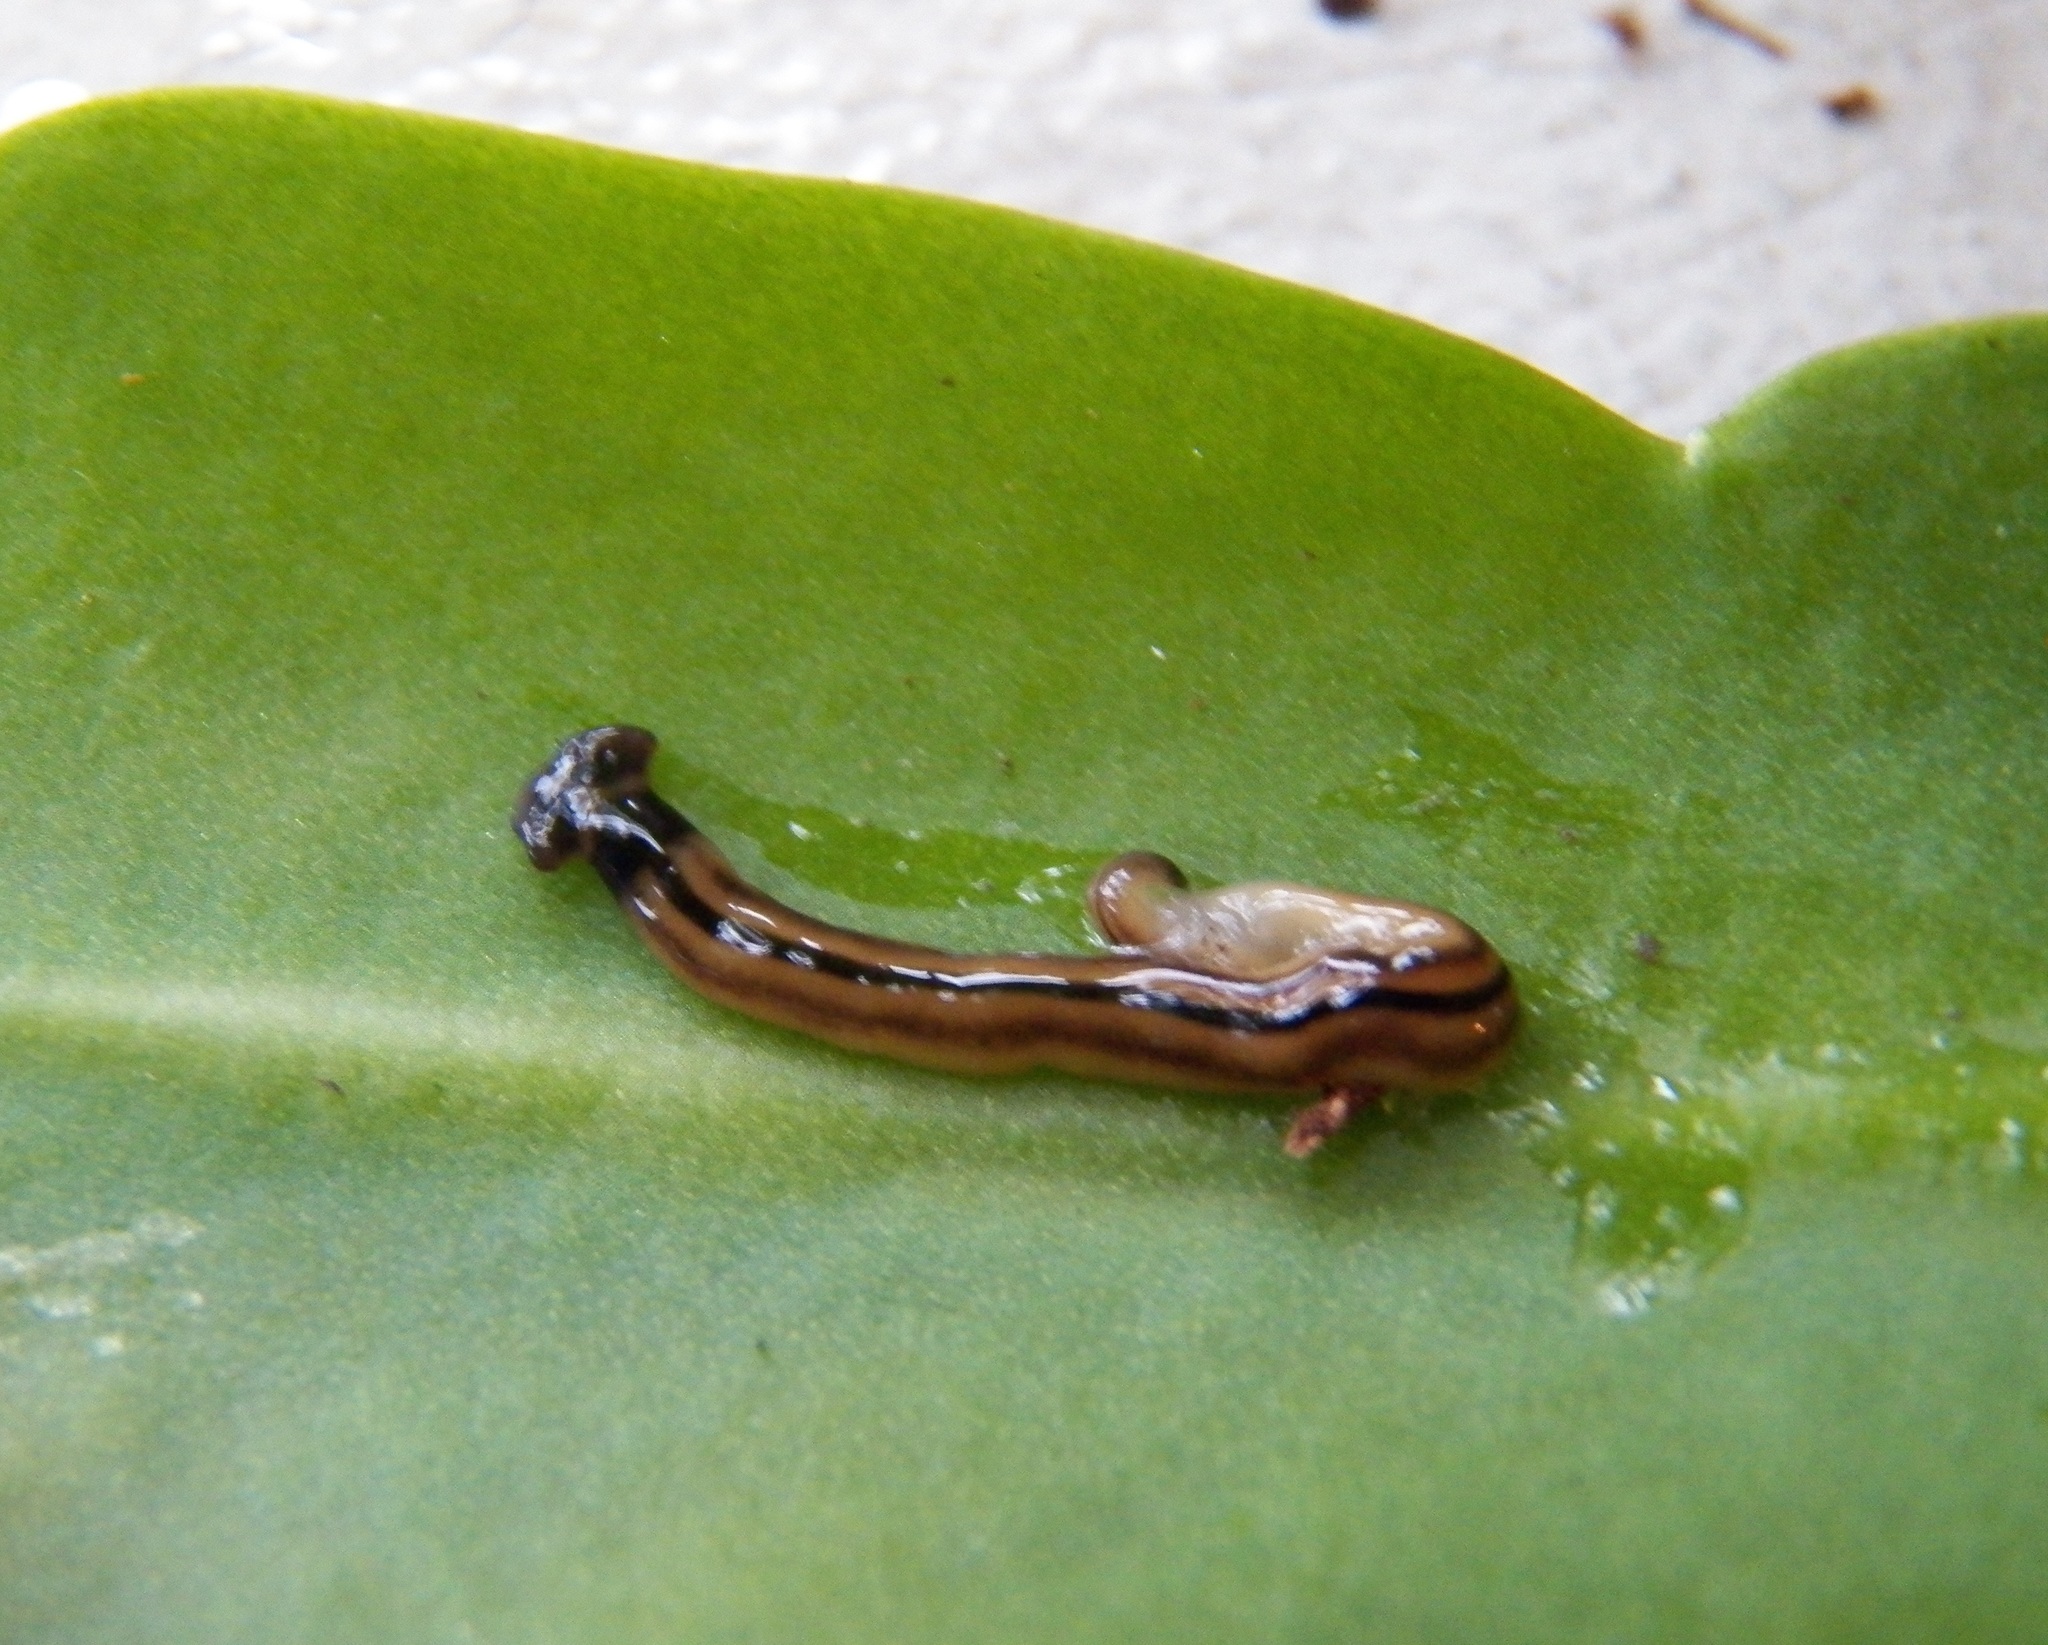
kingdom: Animalia
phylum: Platyhelminthes
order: Tricladida
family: Geoplanidae
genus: Bipalium
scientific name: Bipalium vagum
